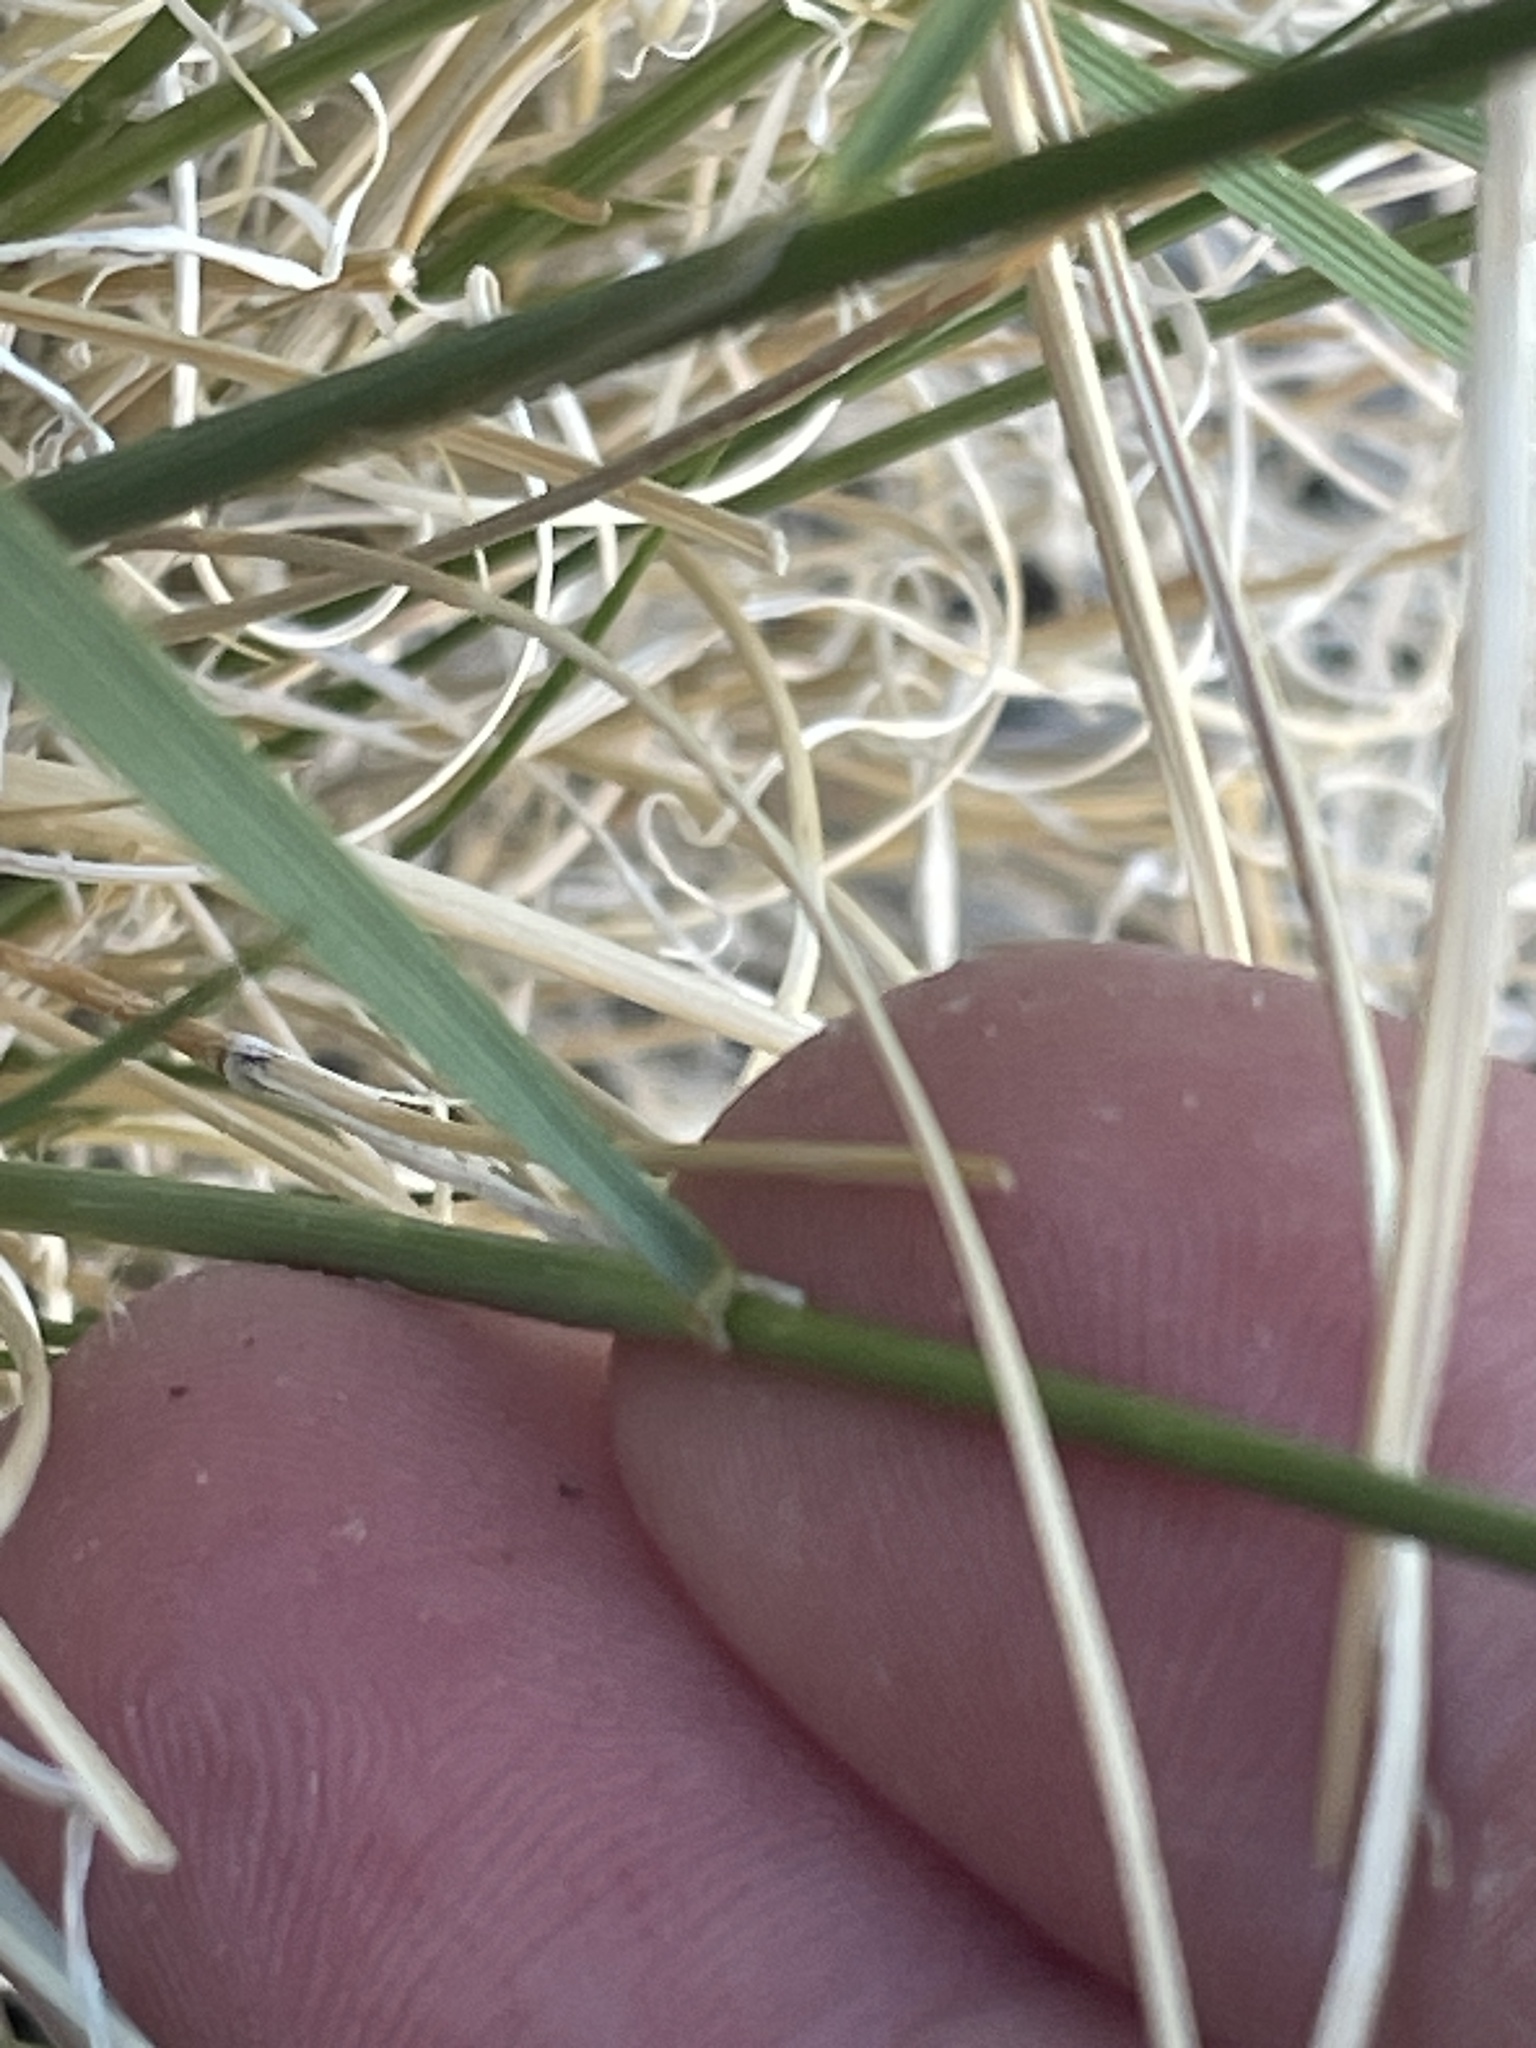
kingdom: Plantae
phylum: Tracheophyta
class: Liliopsida
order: Poales
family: Poaceae
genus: Eriocoma
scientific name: Eriocoma arida
